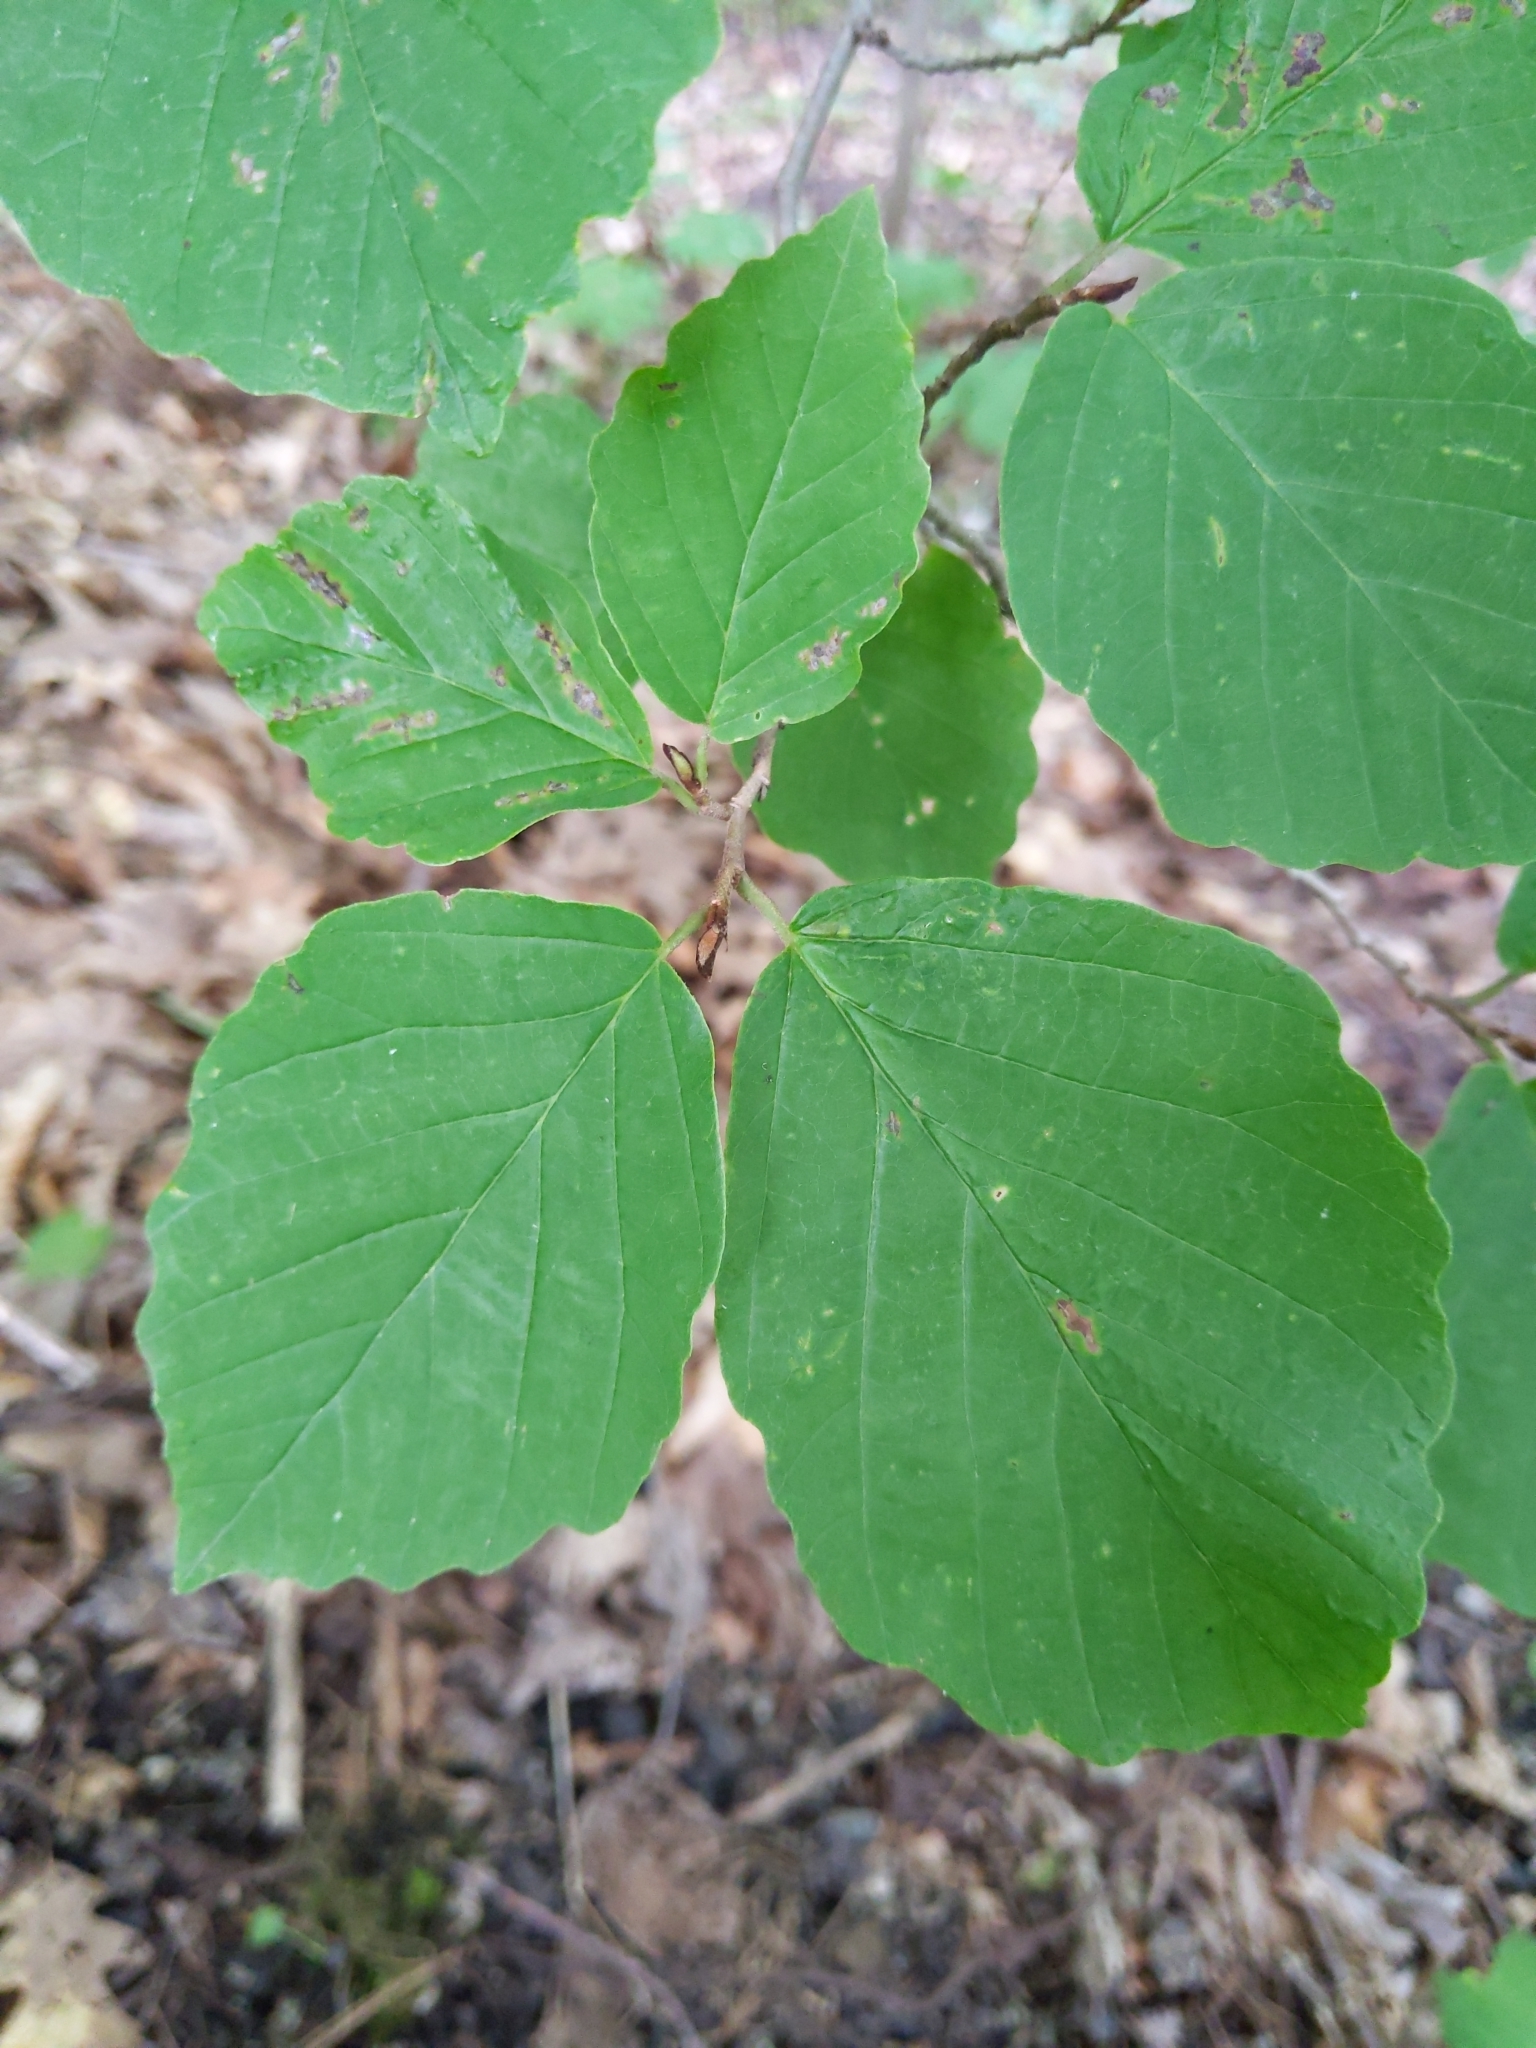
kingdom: Plantae
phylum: Tracheophyta
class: Magnoliopsida
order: Saxifragales
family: Hamamelidaceae
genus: Hamamelis
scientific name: Hamamelis virginiana
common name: Witch-hazel
